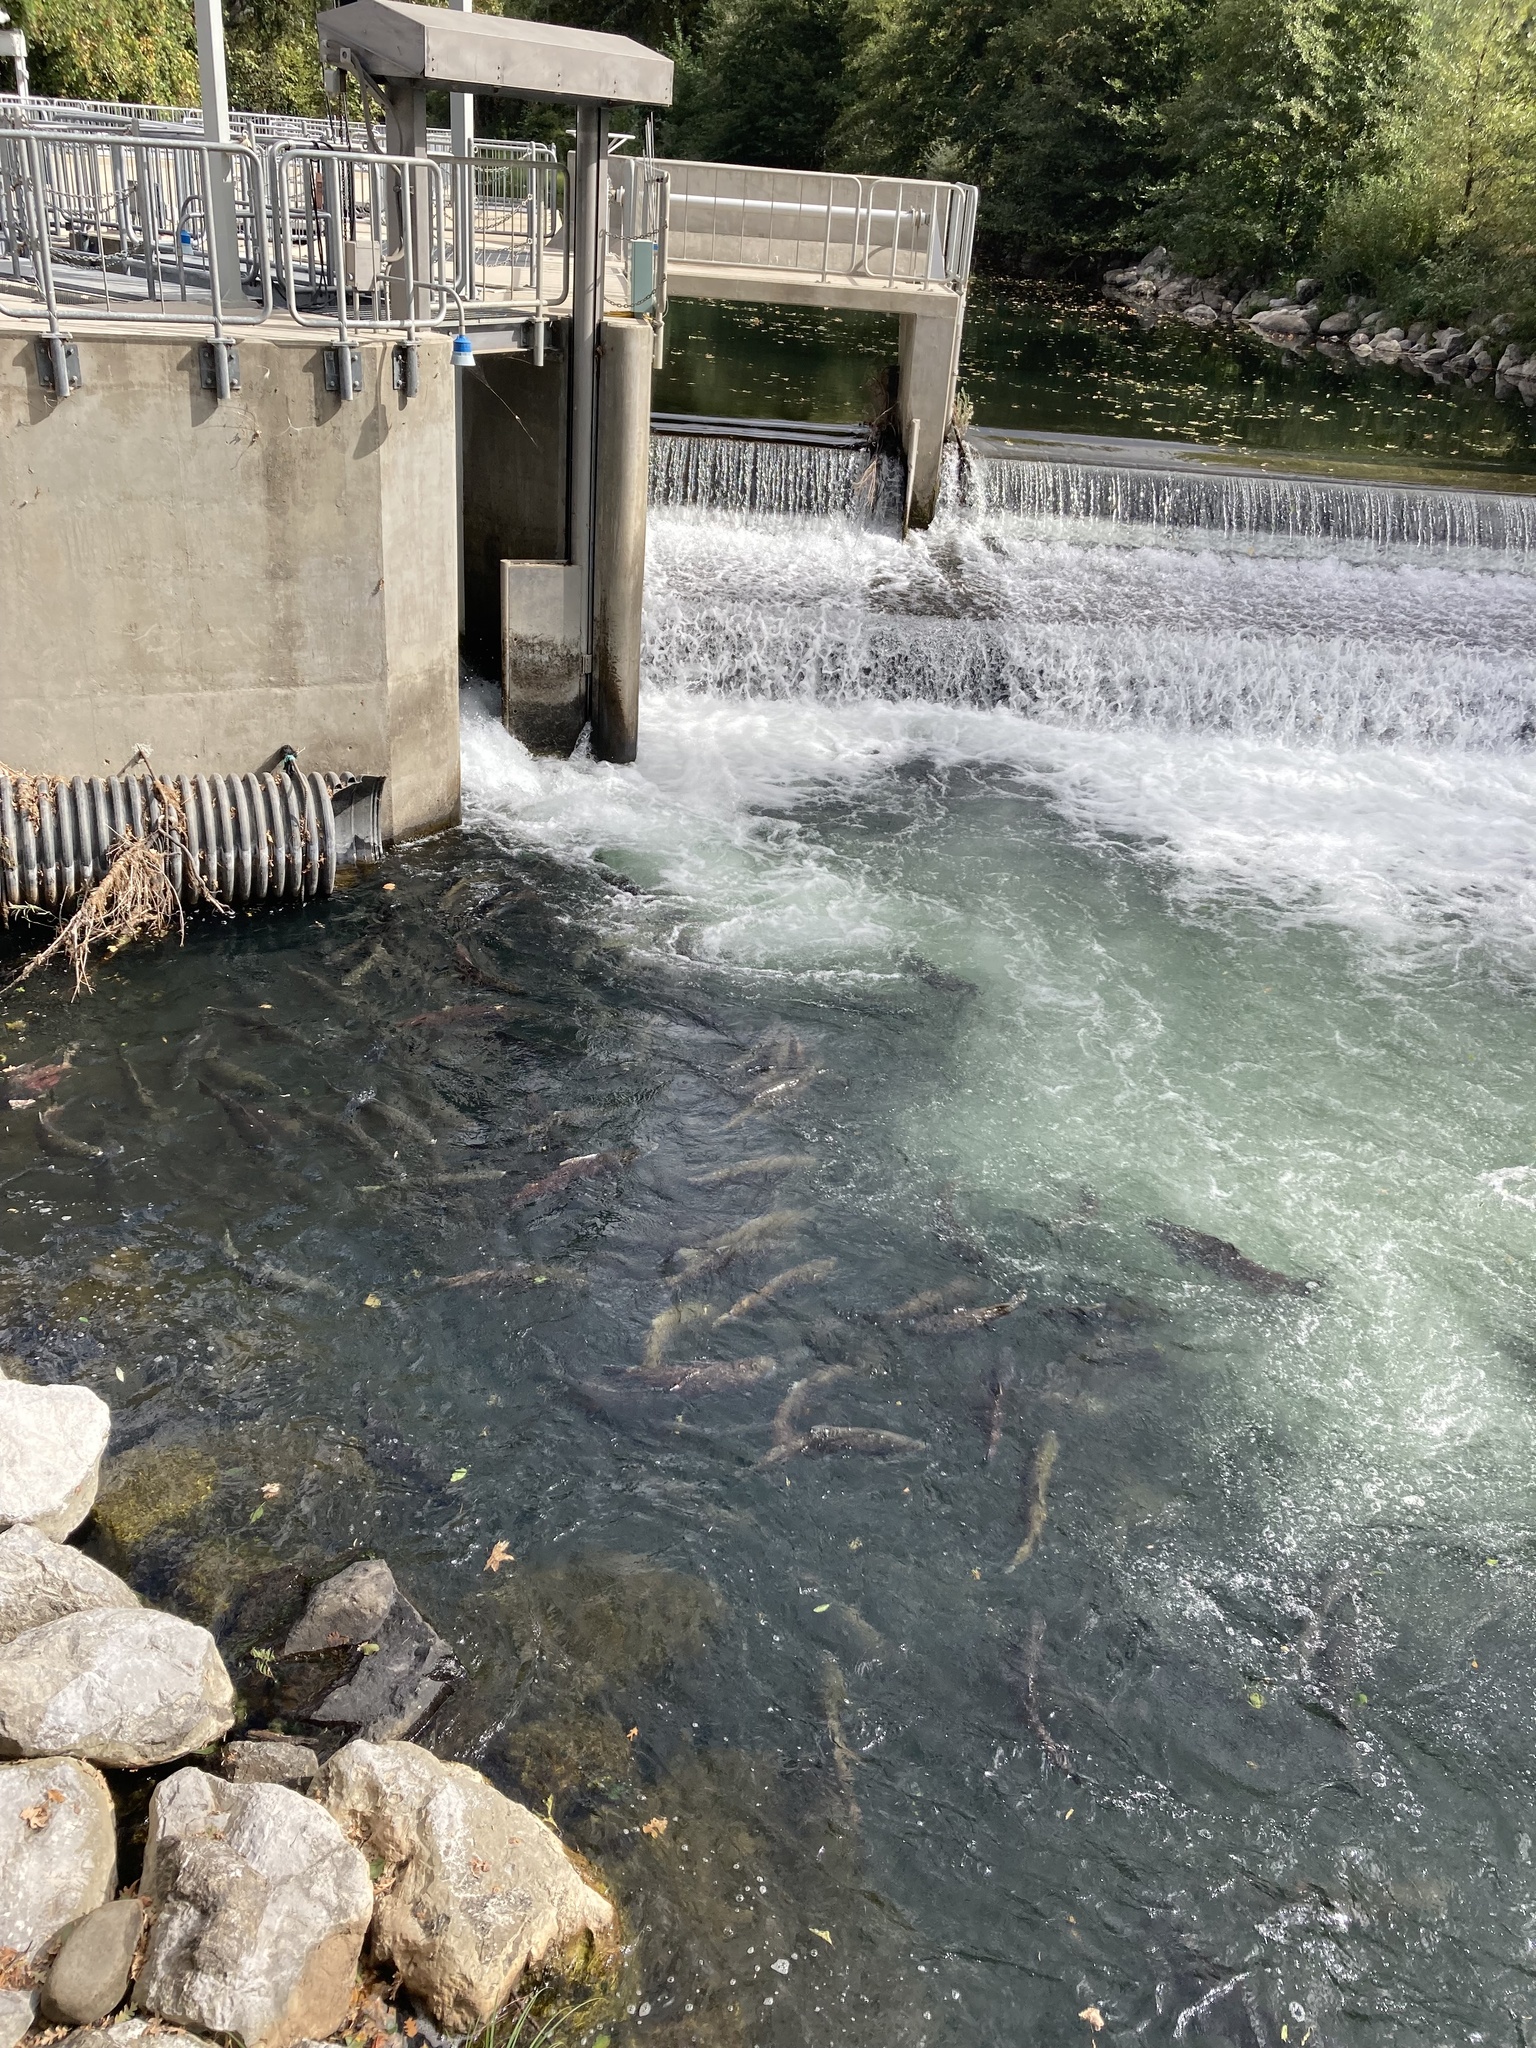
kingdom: Animalia
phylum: Chordata
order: Salmoniformes
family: Salmonidae
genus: Oncorhynchus
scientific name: Oncorhynchus tshawytscha
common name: Chinook salmon
